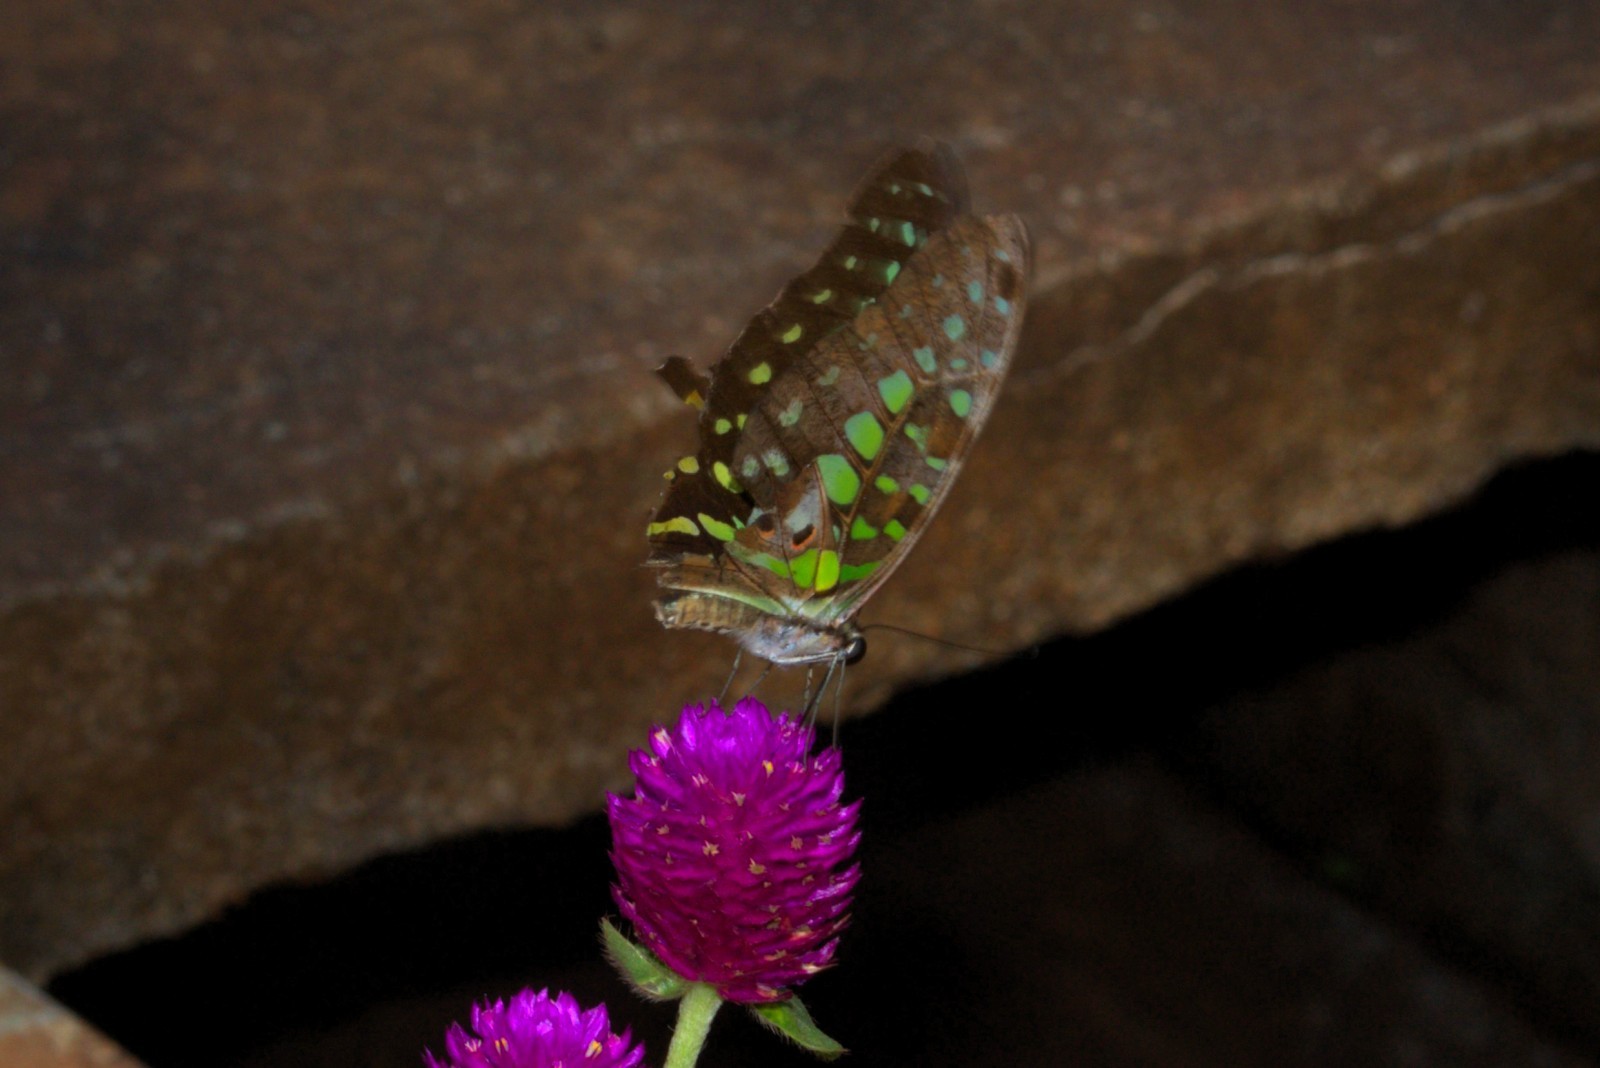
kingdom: Animalia
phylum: Arthropoda
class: Insecta
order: Lepidoptera
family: Papilionidae
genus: Graphium
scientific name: Graphium agamemnon
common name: Tailed jay
